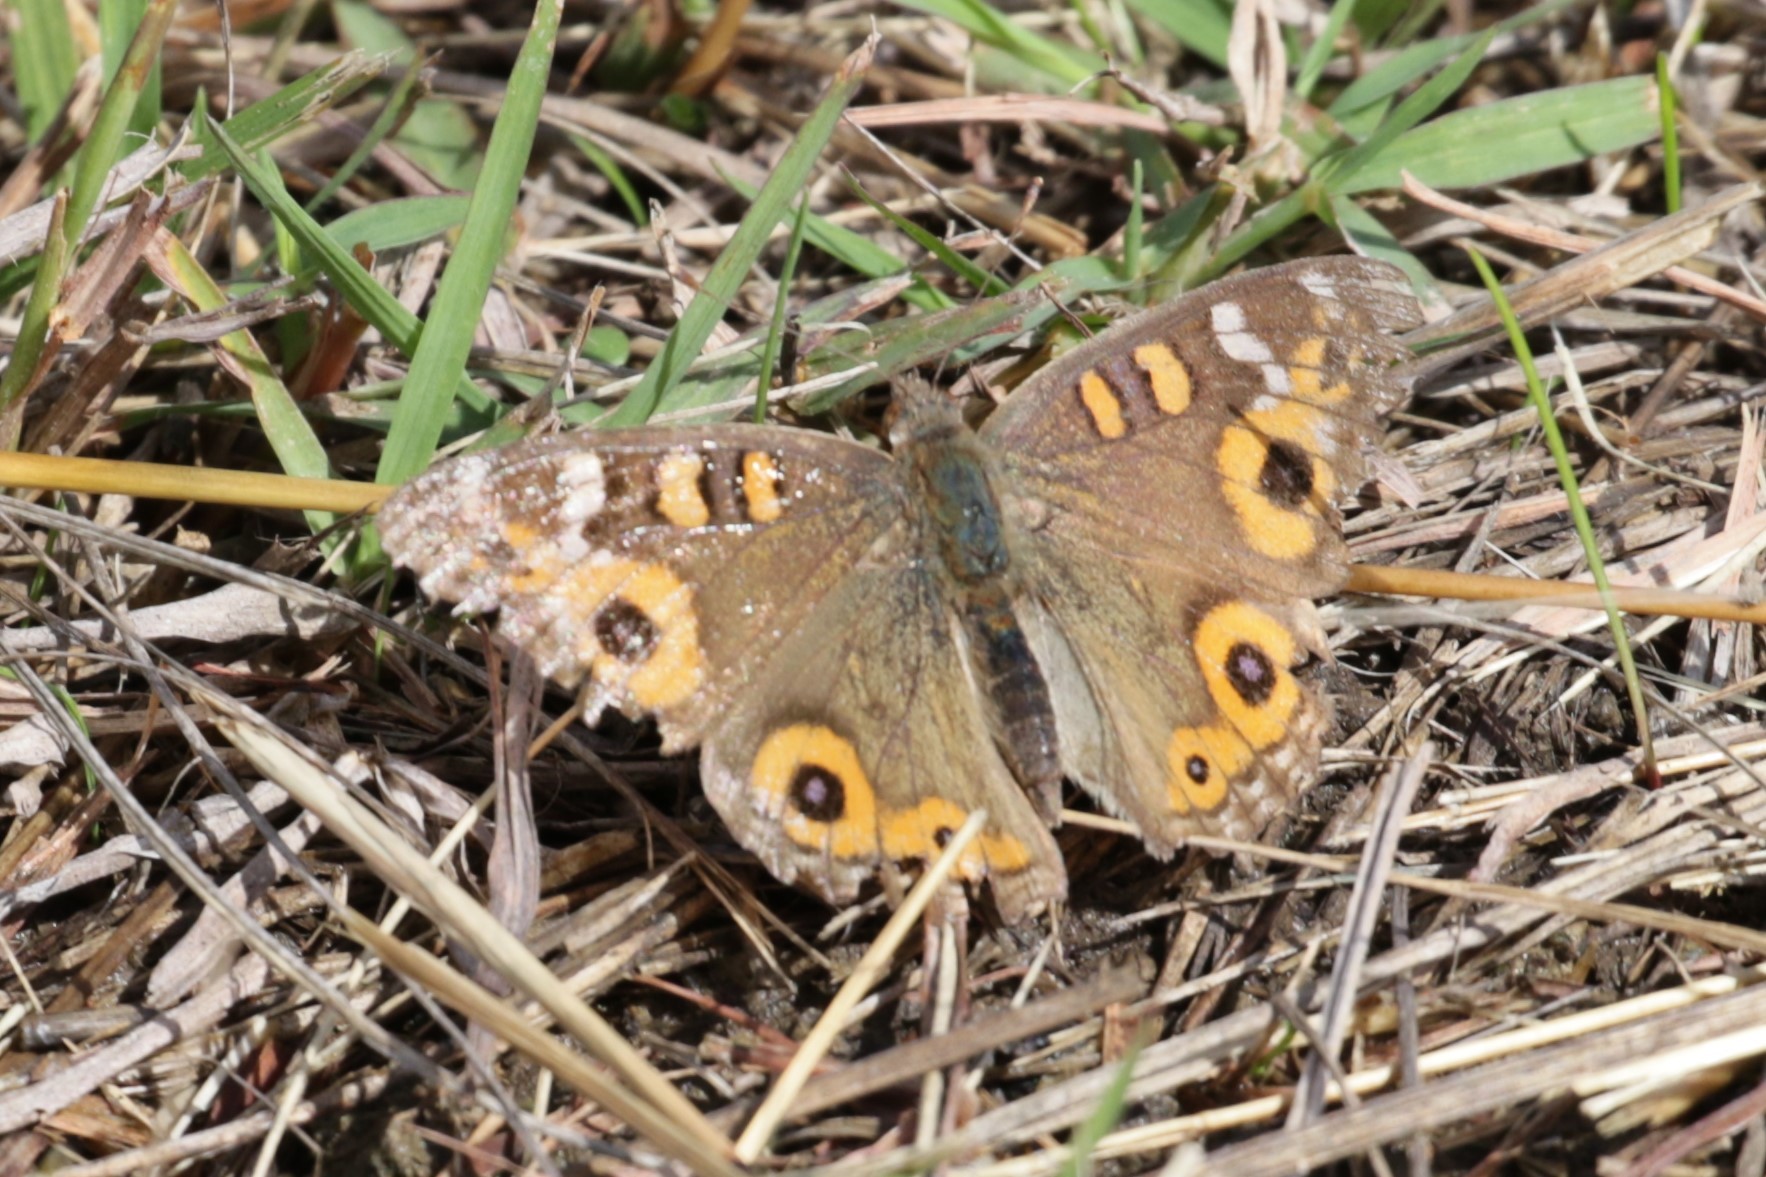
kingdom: Animalia
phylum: Arthropoda
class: Insecta
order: Lepidoptera
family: Nymphalidae
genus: Junonia
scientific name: Junonia villida
